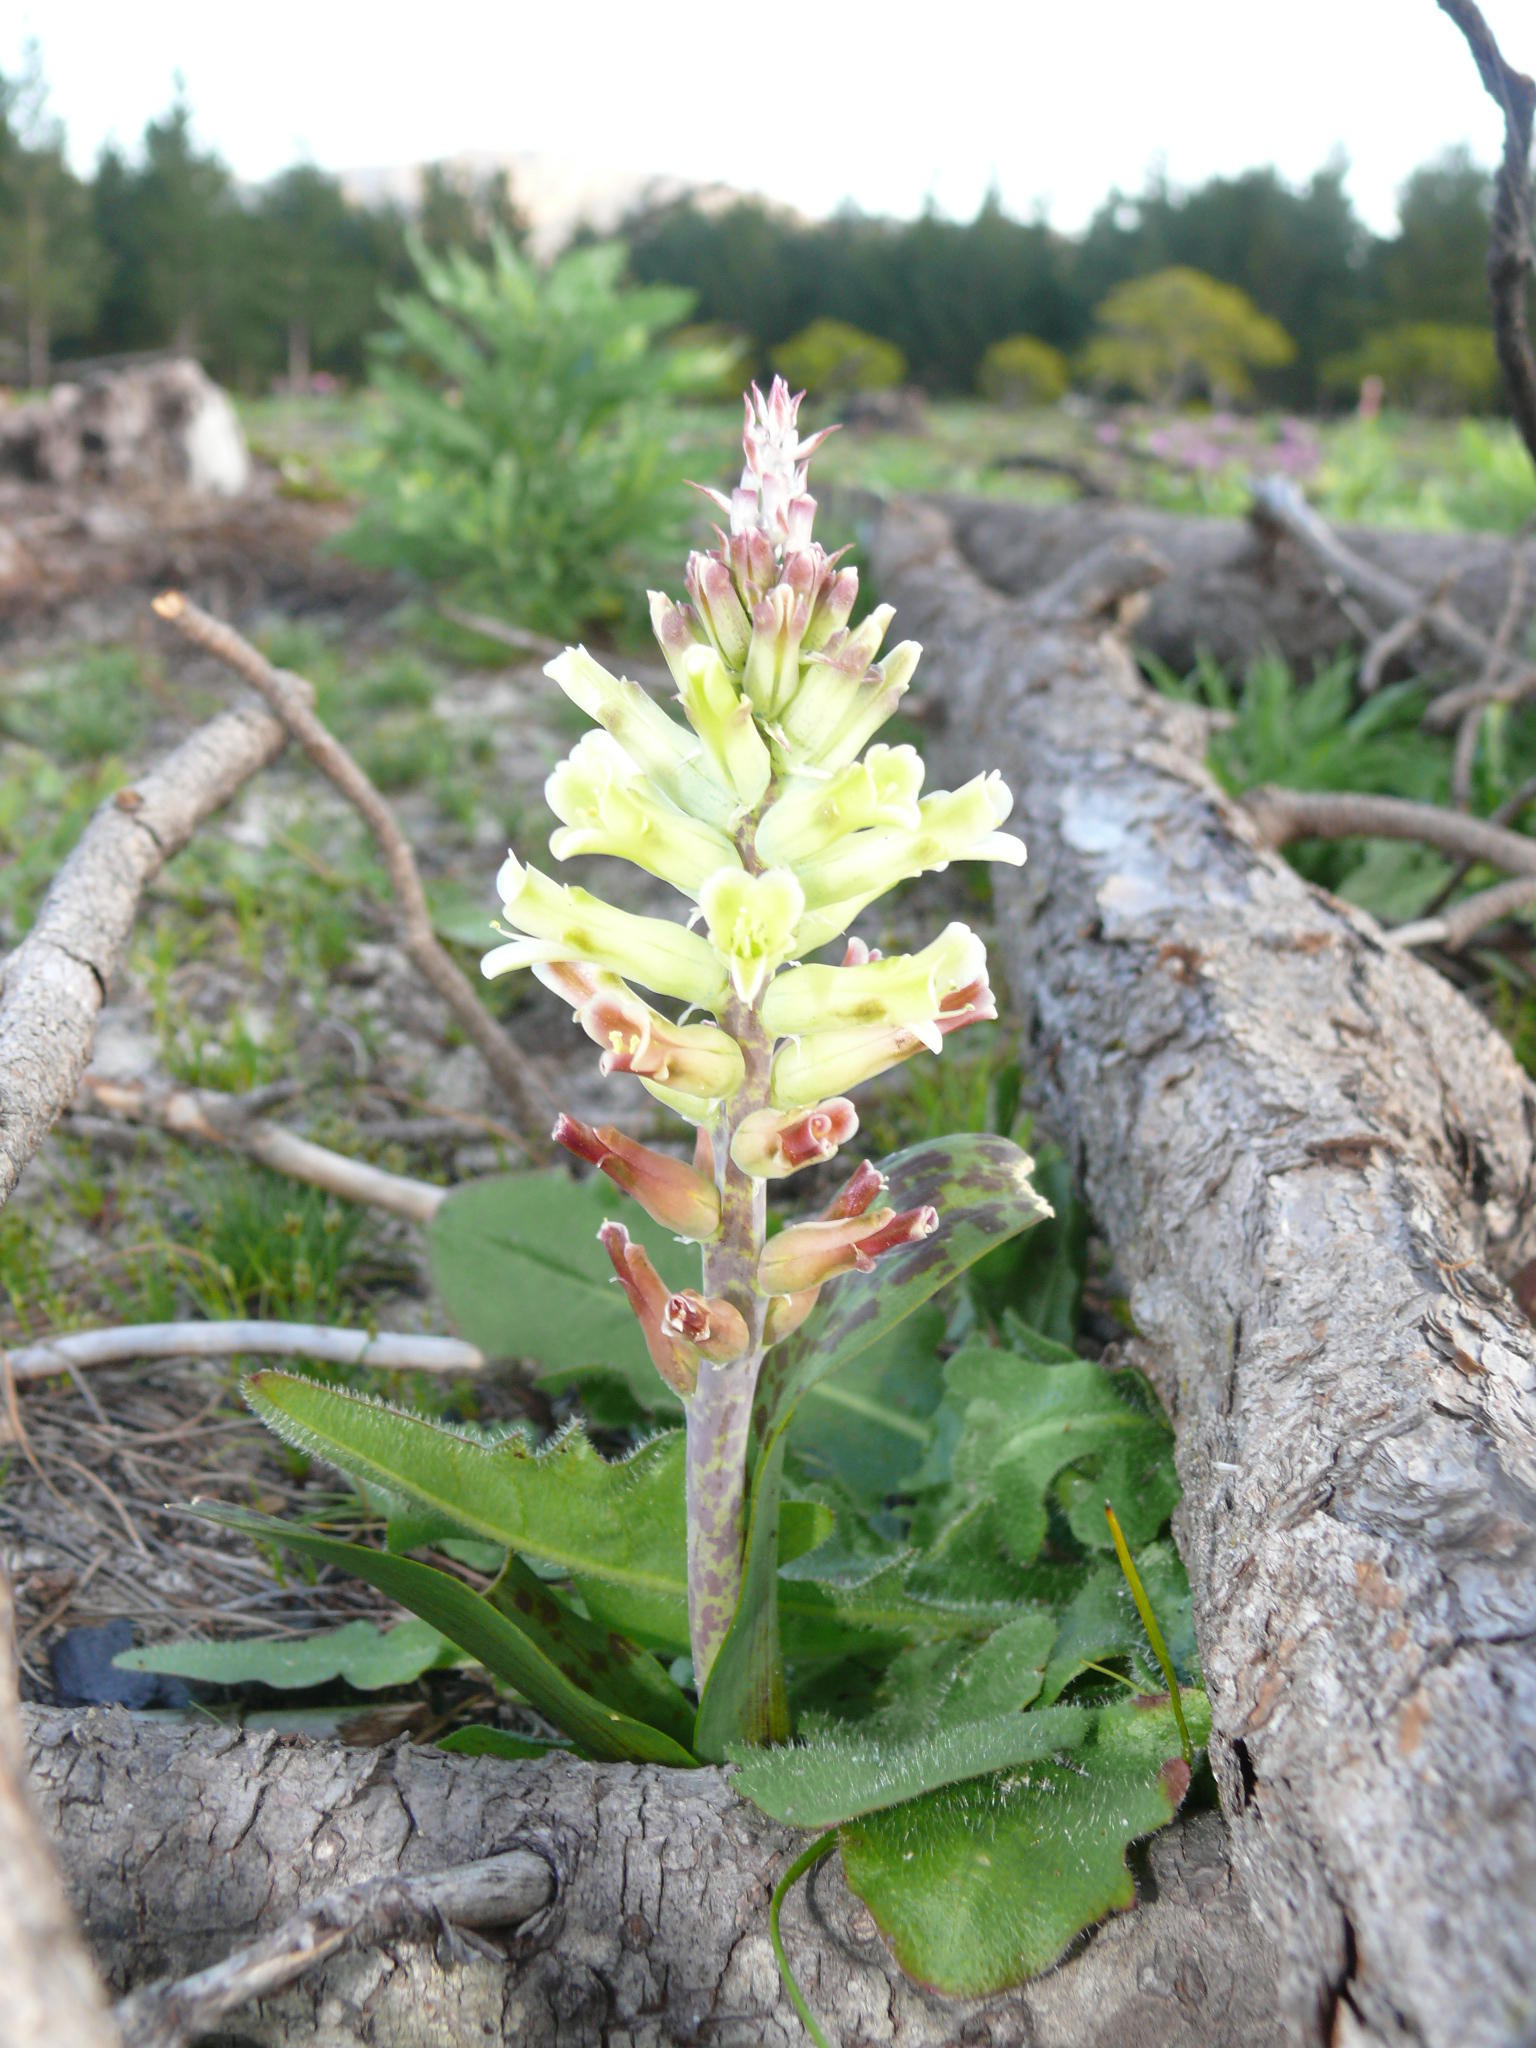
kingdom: Plantae
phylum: Tracheophyta
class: Liliopsida
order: Asparagales
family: Asparagaceae
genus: Lachenalia
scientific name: Lachenalia orchioides
